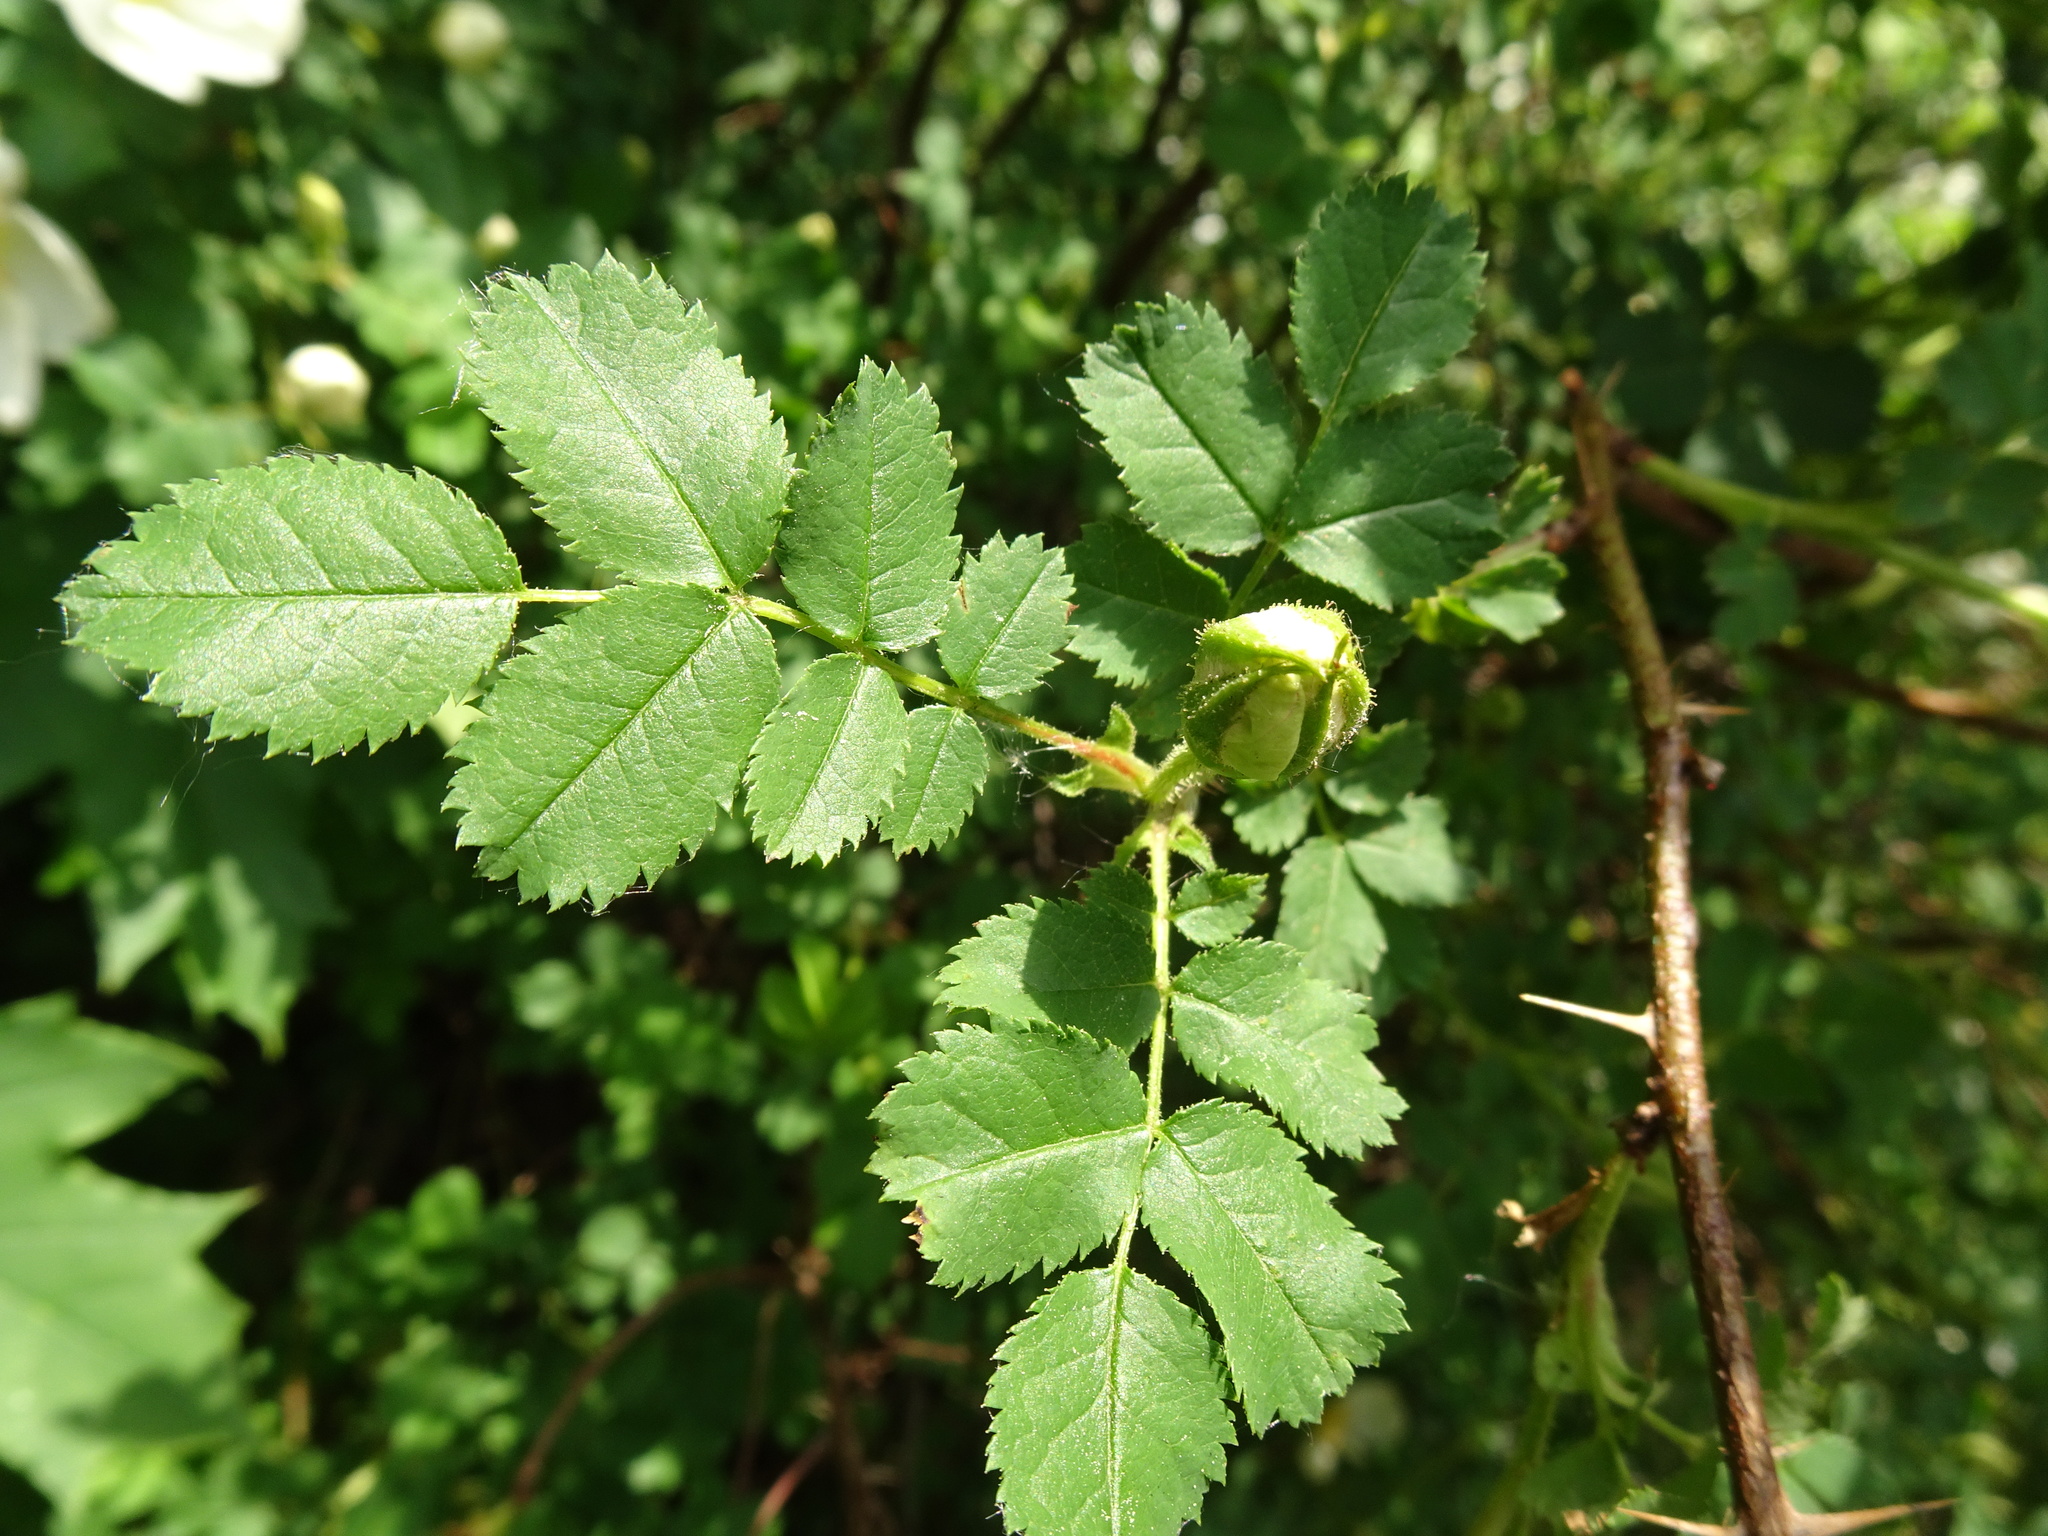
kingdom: Plantae
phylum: Tracheophyta
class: Magnoliopsida
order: Rosales
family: Rosaceae
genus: Rosa
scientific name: Rosa spinosissima
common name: Burnet rose
